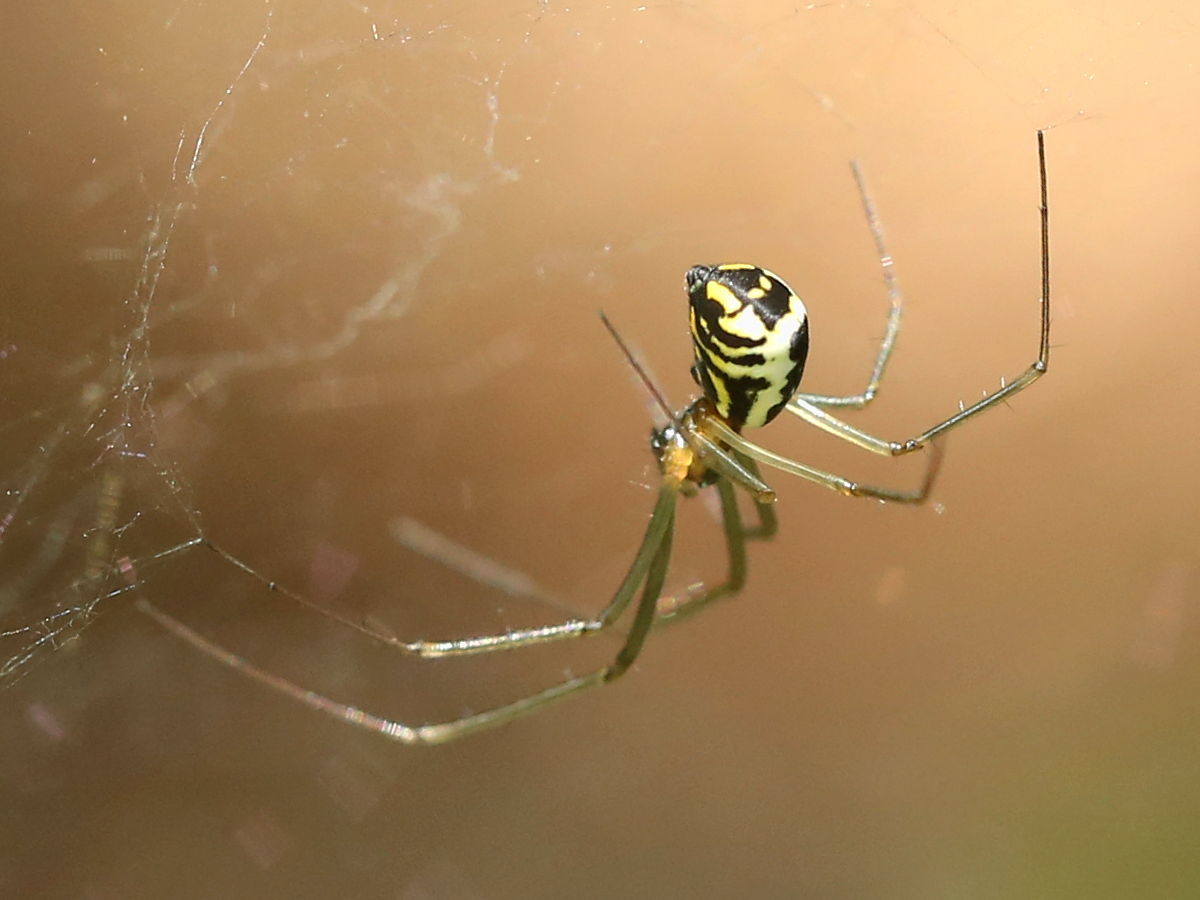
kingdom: Animalia
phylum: Arthropoda
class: Arachnida
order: Araneae
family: Linyphiidae
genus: Neriene
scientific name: Neriene radiata
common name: Filmy dome spider
